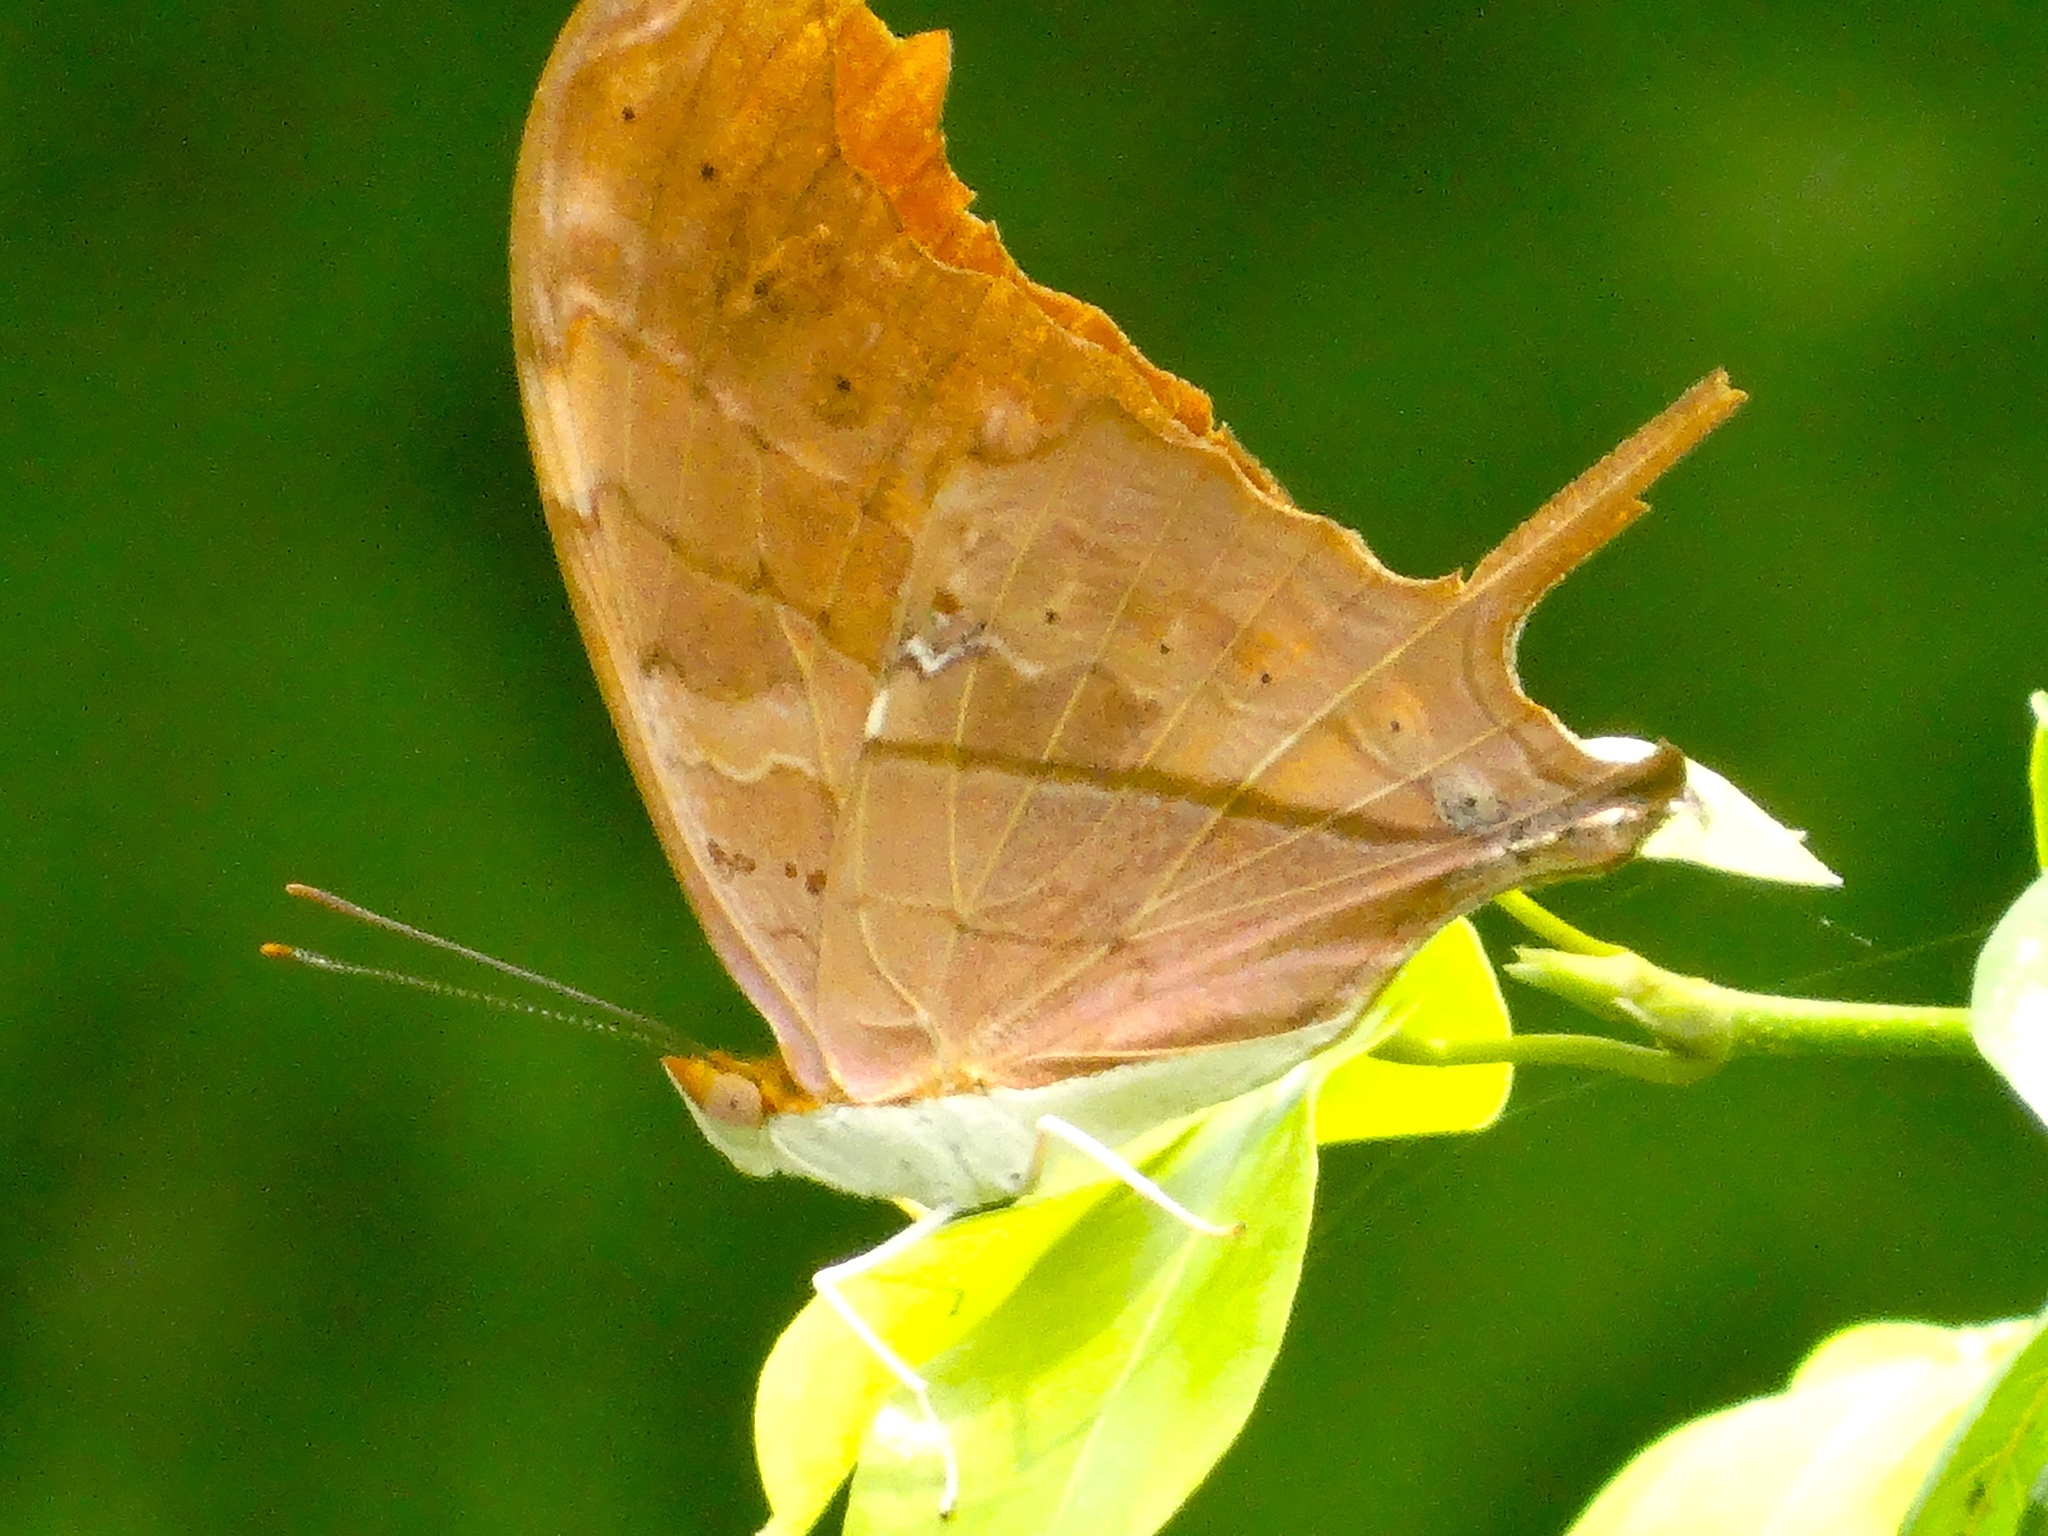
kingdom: Animalia
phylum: Arthropoda
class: Insecta
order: Lepidoptera
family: Nymphalidae
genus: Marpesia
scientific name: Marpesia petreus
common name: Red dagger wing
